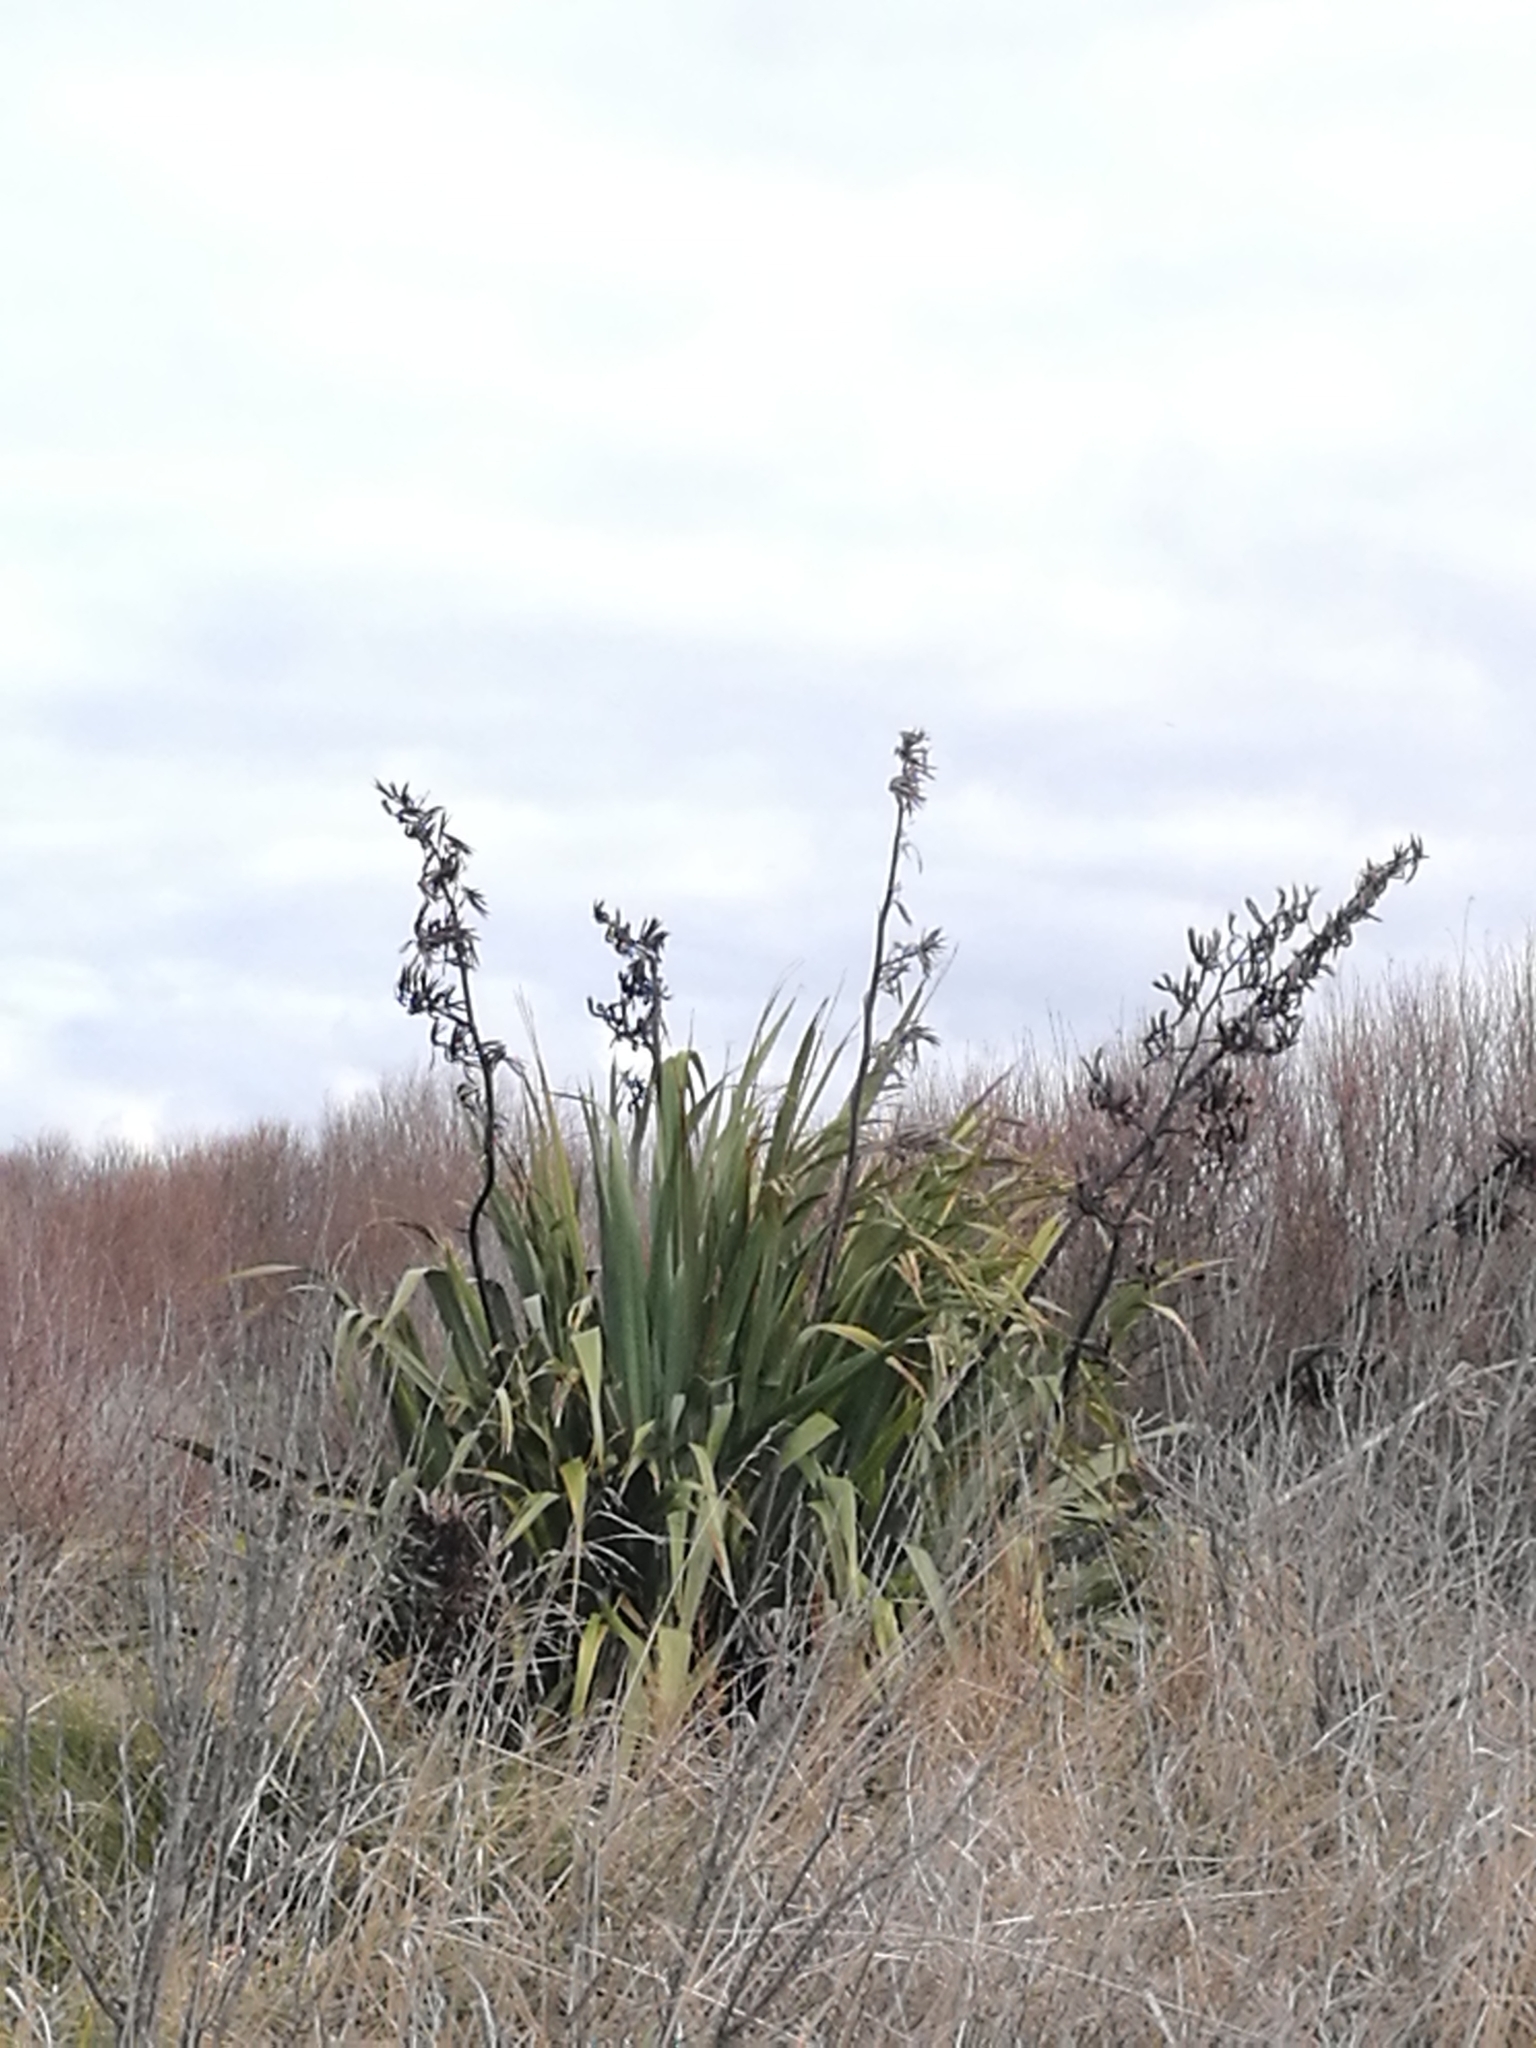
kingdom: Plantae
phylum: Tracheophyta
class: Liliopsida
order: Asparagales
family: Asphodelaceae
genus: Phormium
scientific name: Phormium tenax
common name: New zealand flax
